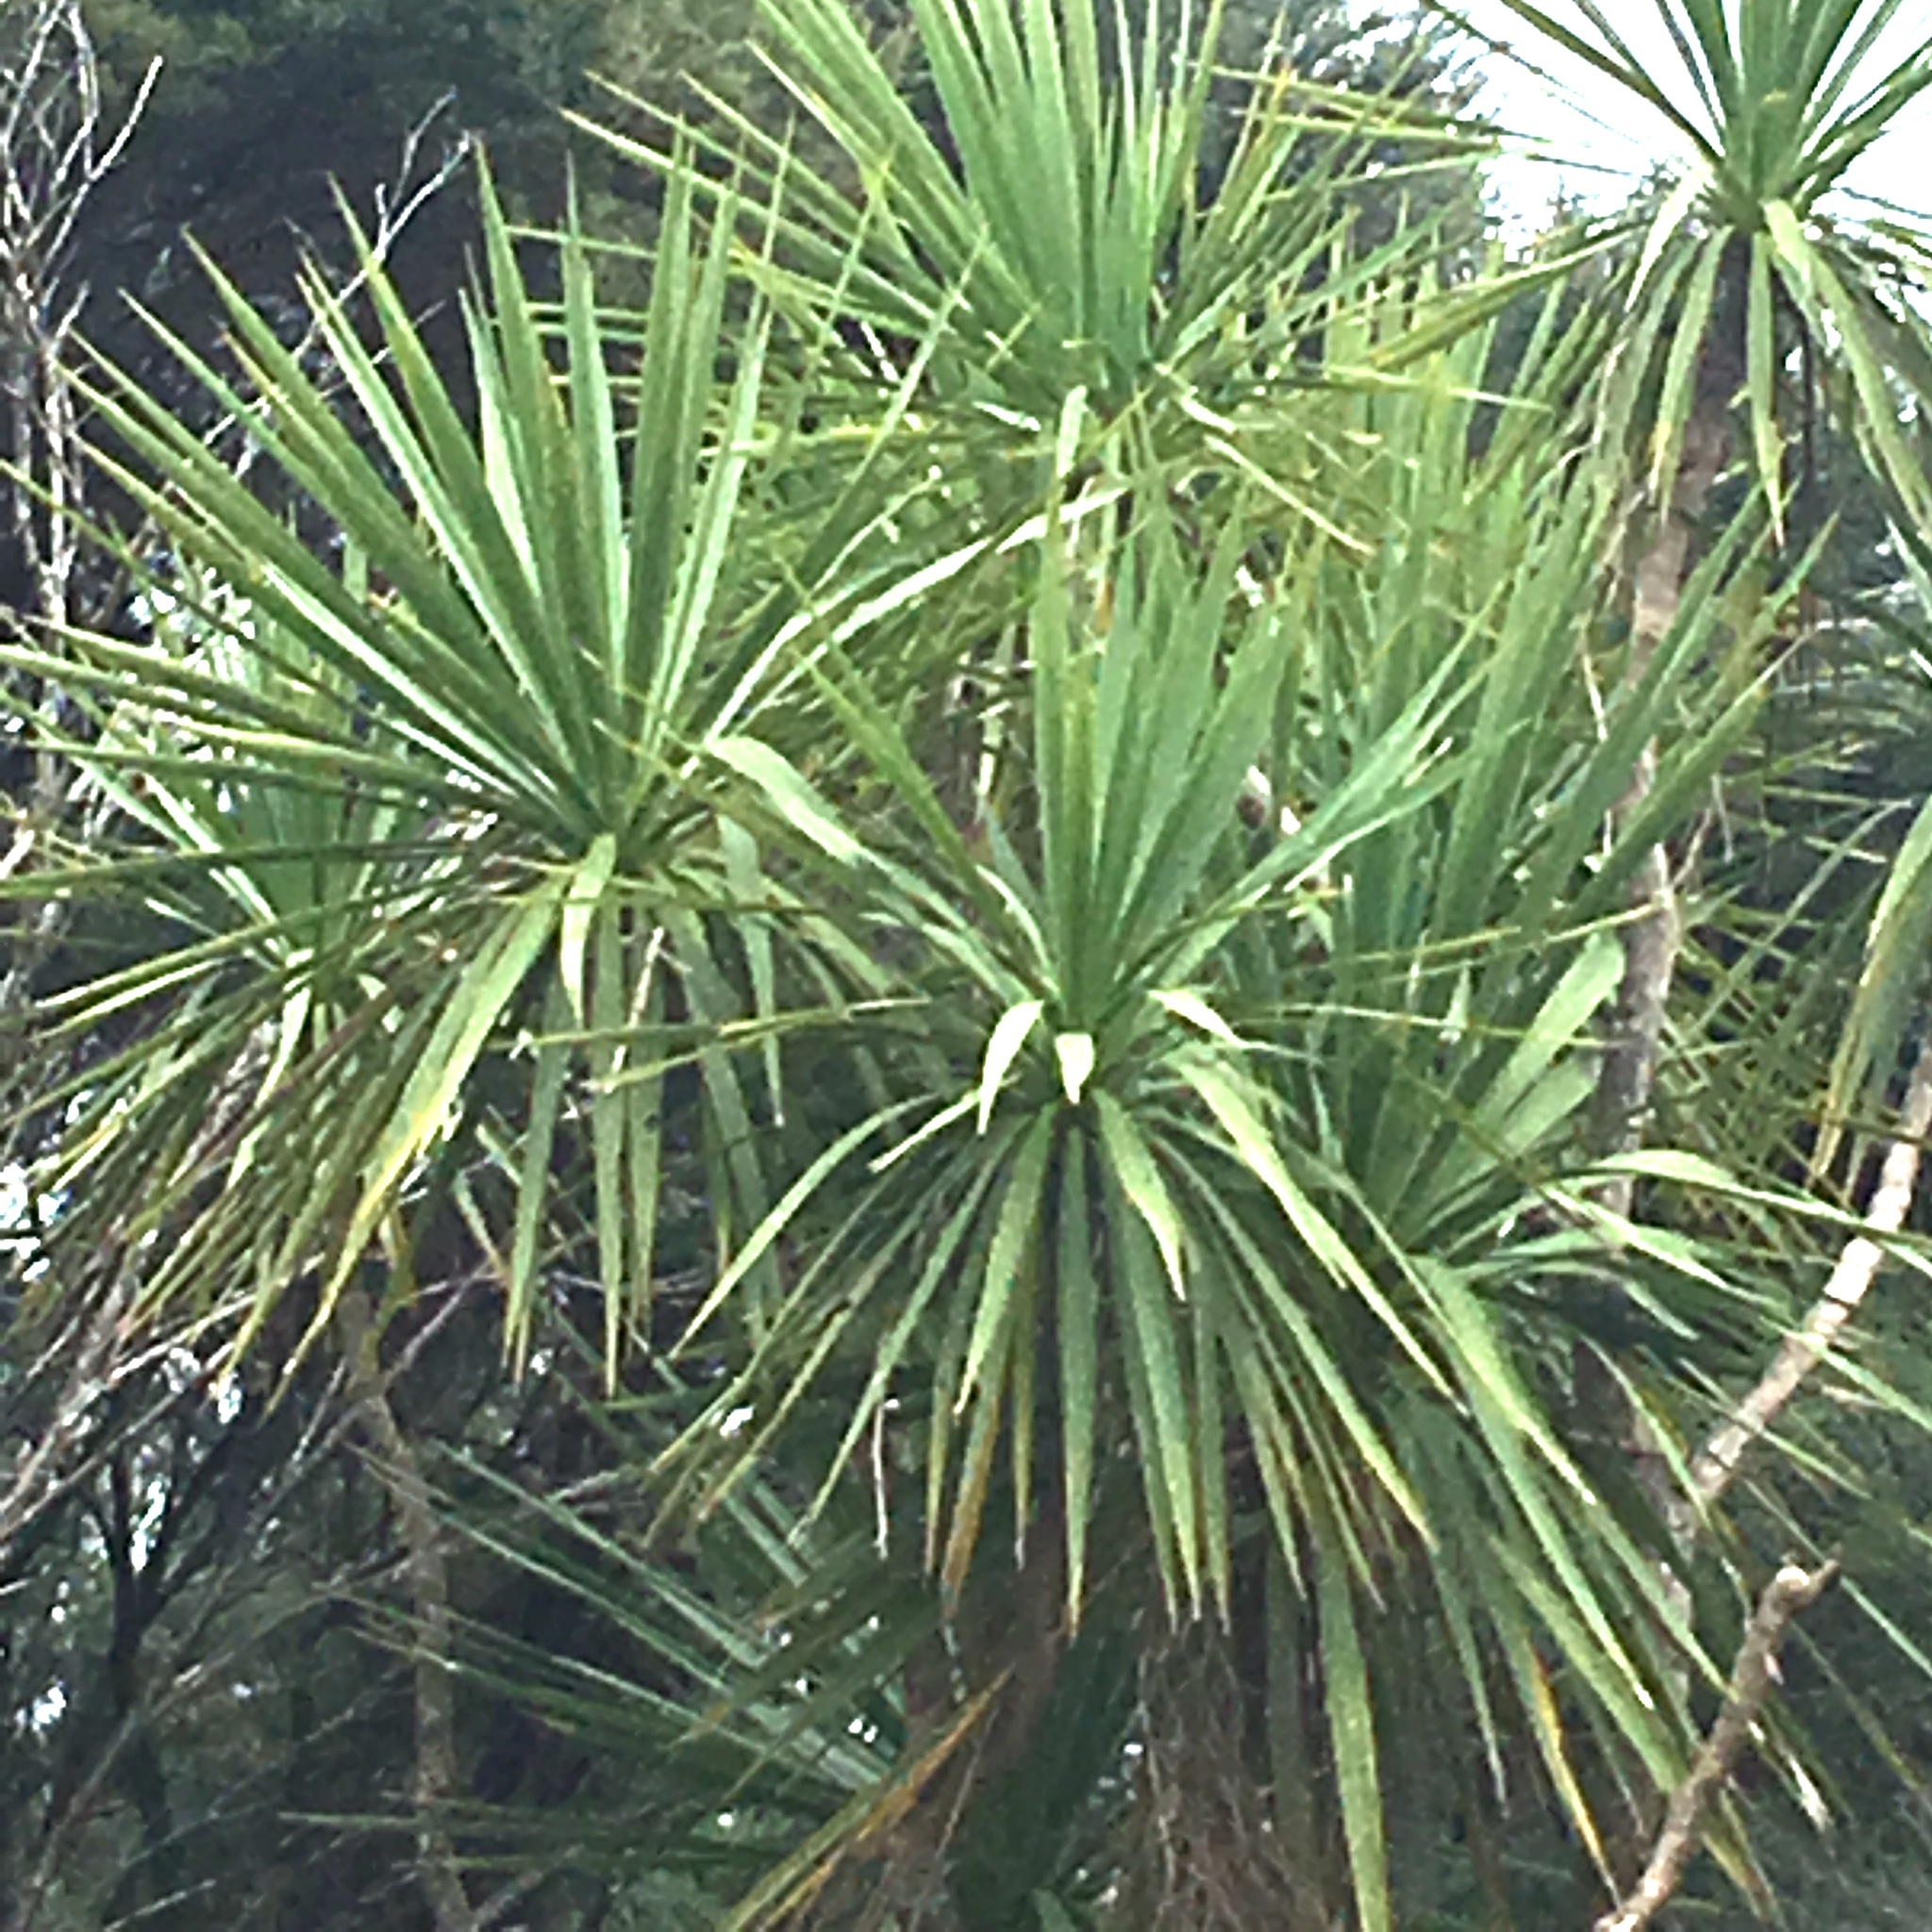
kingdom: Plantae
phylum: Tracheophyta
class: Liliopsida
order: Asparagales
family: Asparagaceae
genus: Cordyline
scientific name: Cordyline australis
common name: Cabbage-palm
